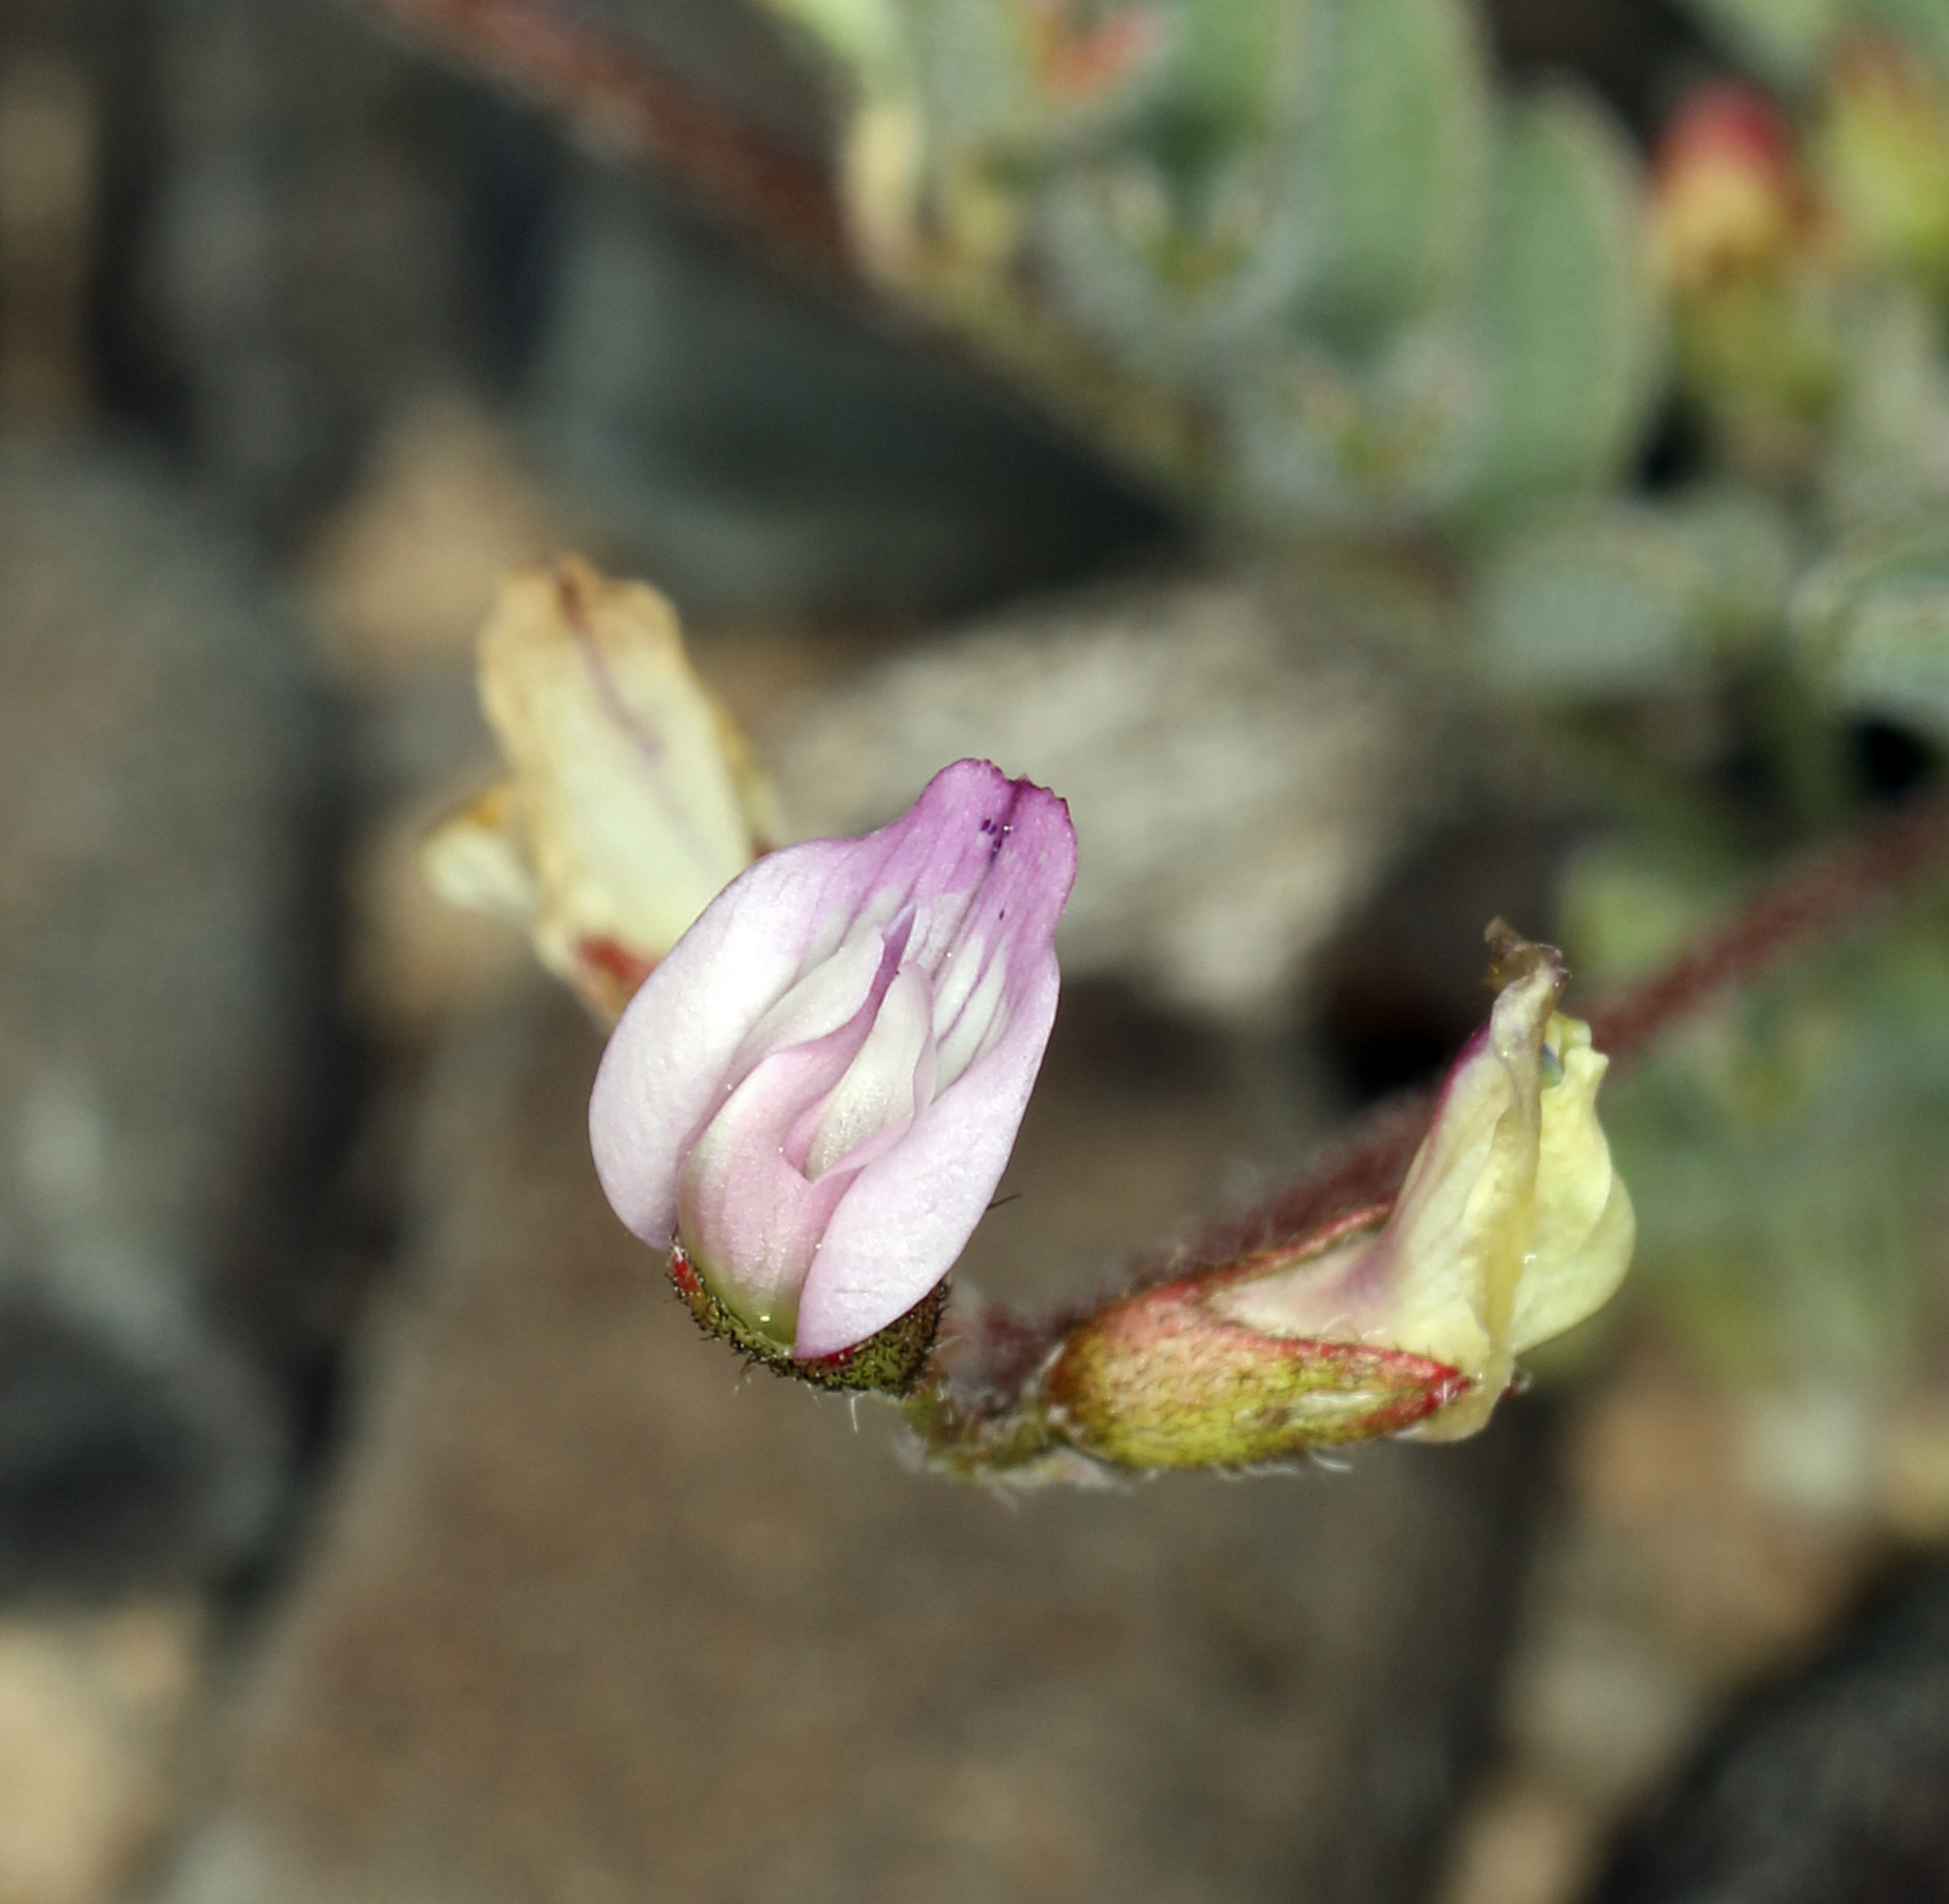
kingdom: Plantae
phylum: Tracheophyta
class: Magnoliopsida
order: Fabales
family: Fabaceae
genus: Astragalus
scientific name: Astragalus acutirostris
